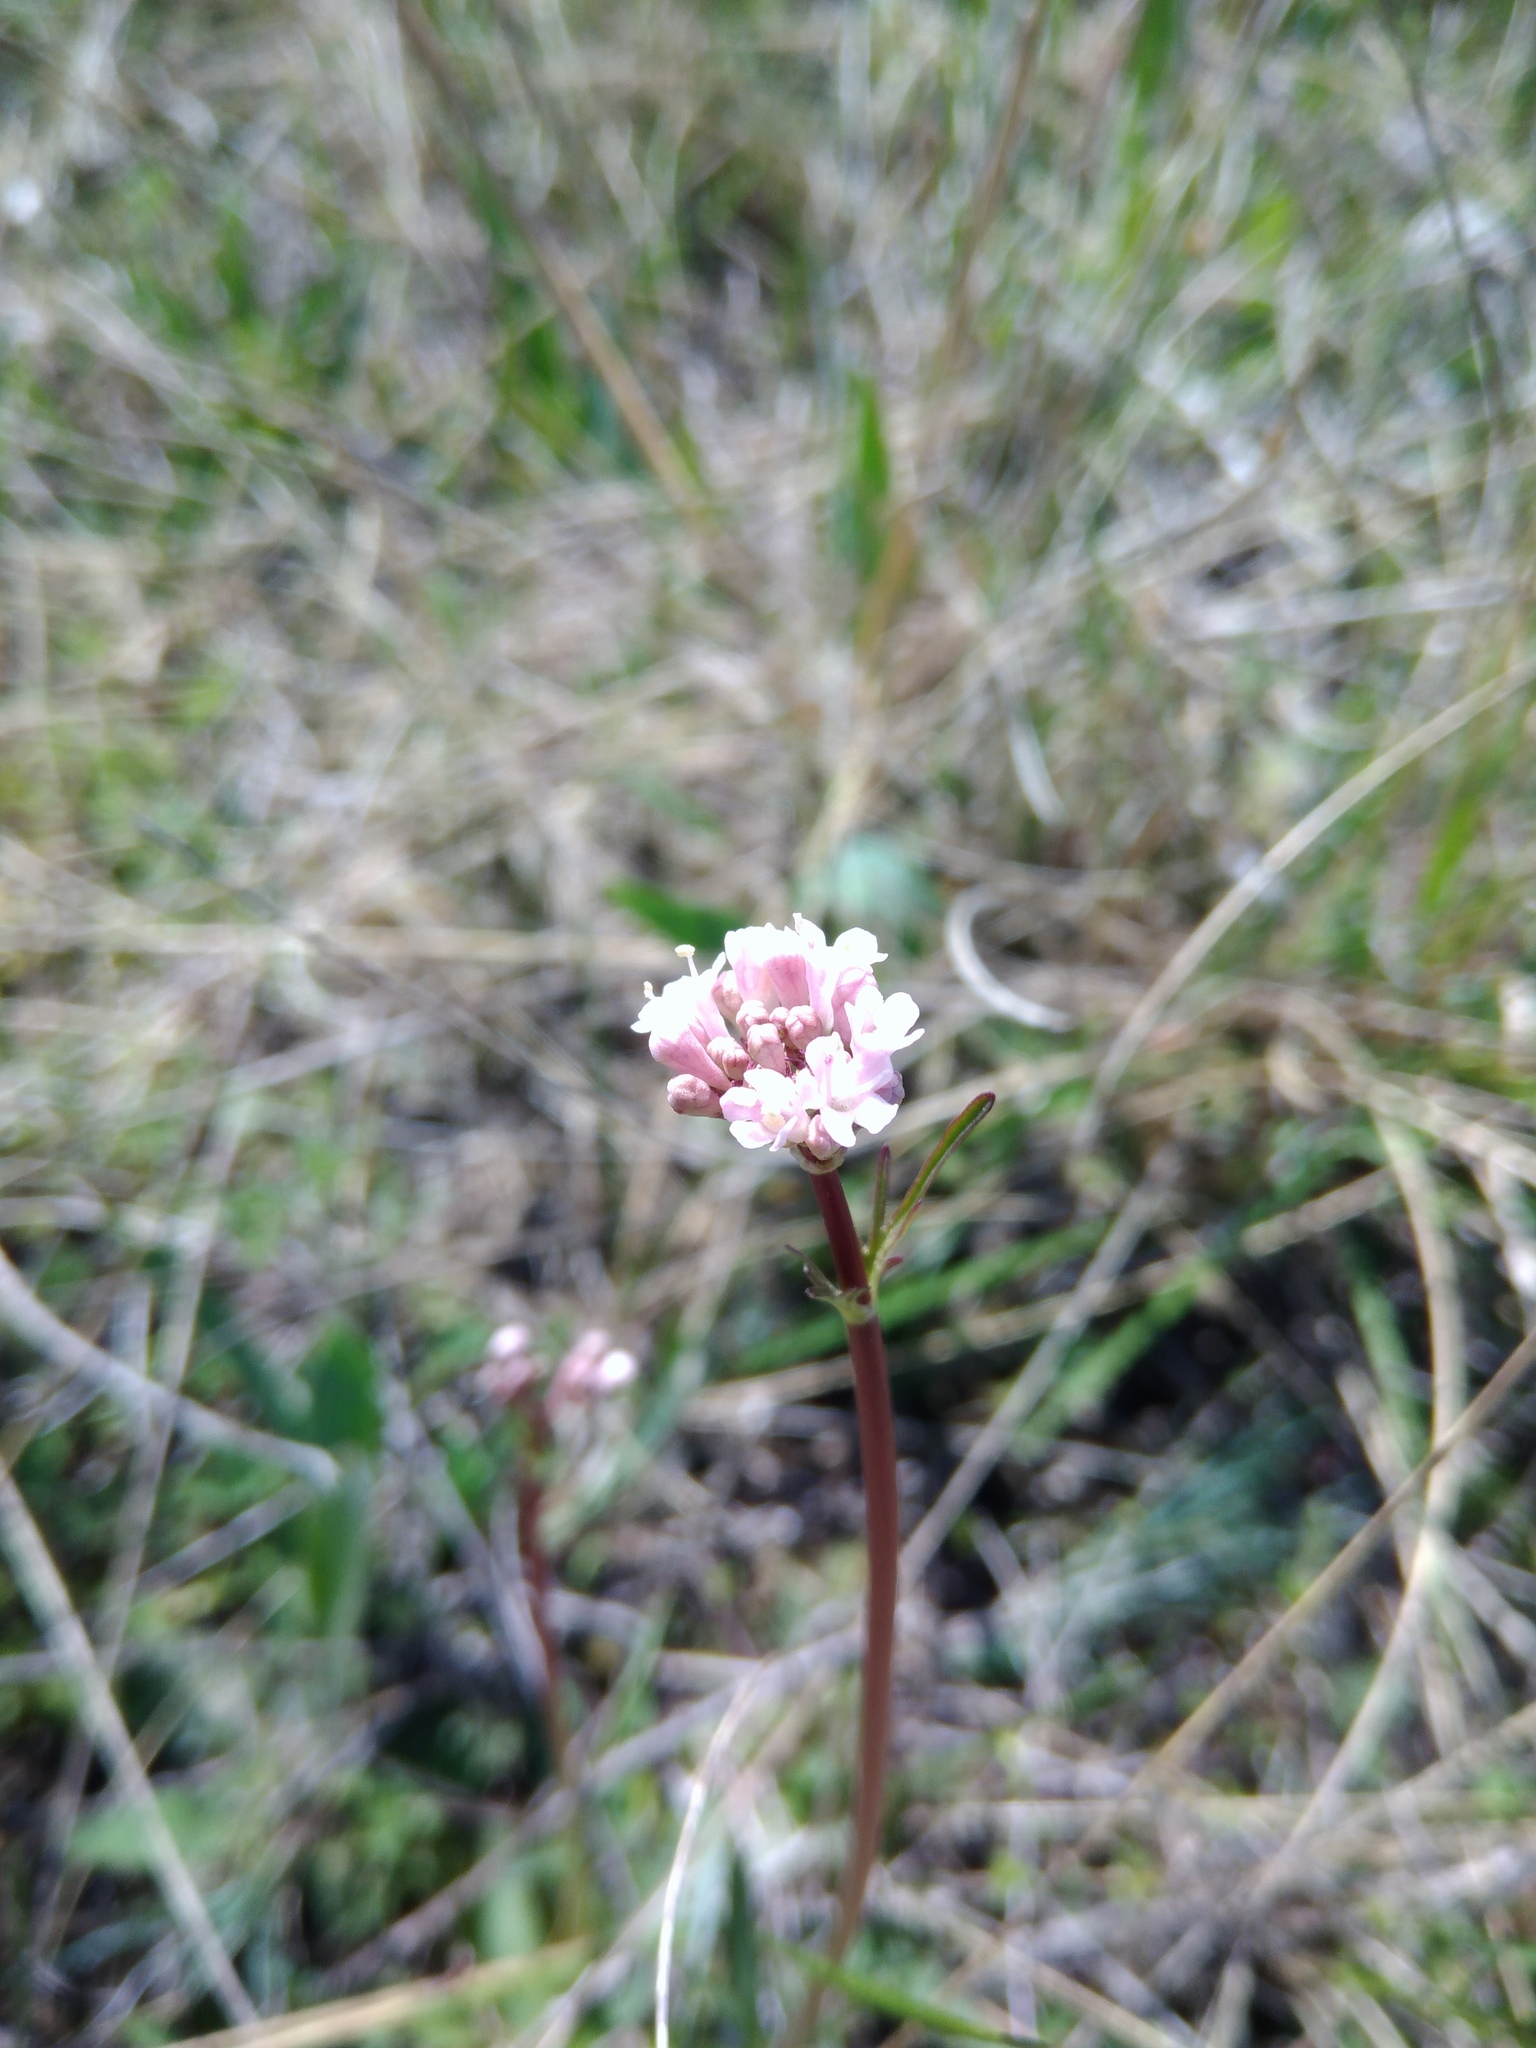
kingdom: Plantae
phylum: Tracheophyta
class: Magnoliopsida
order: Dipsacales
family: Caprifoliaceae
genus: Valeriana
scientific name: Valeriana tuberosa
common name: Tuberous valerian
